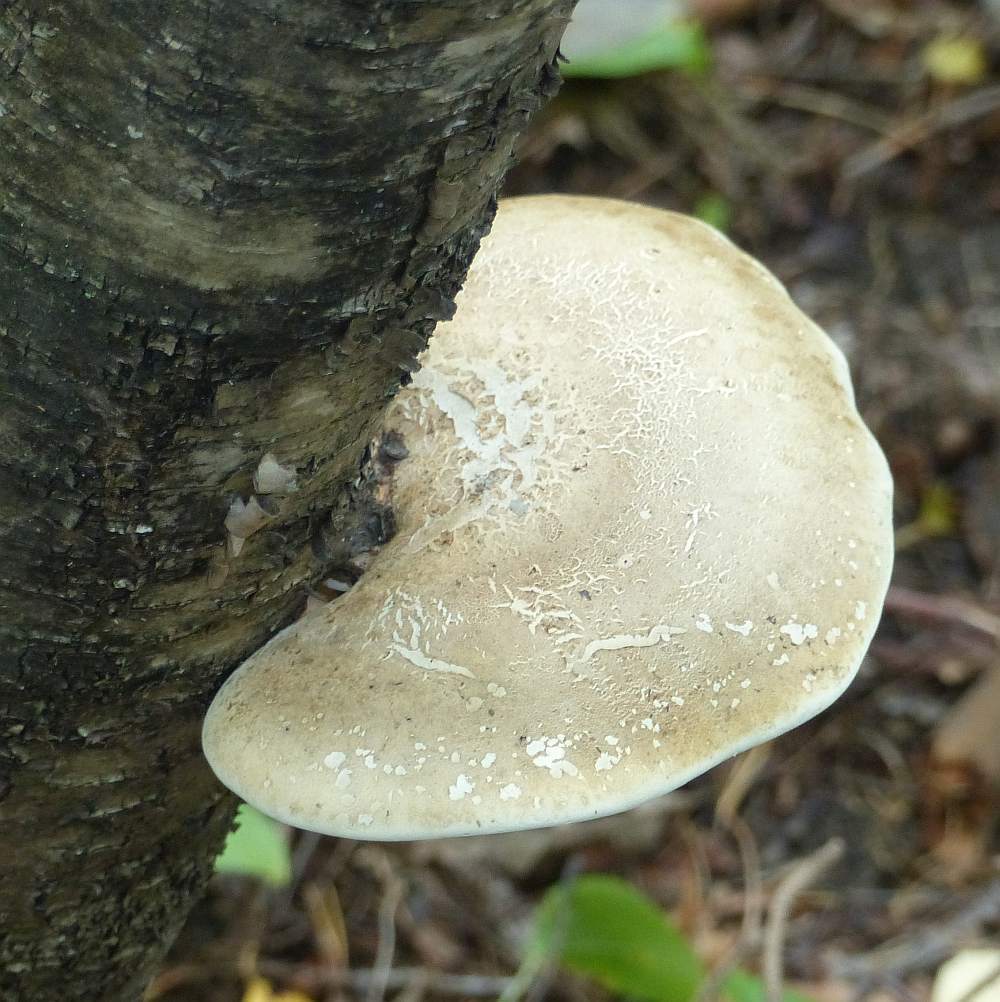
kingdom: Fungi
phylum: Basidiomycota
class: Agaricomycetes
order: Polyporales
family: Fomitopsidaceae
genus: Fomitopsis
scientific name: Fomitopsis betulina
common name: Birch polypore
